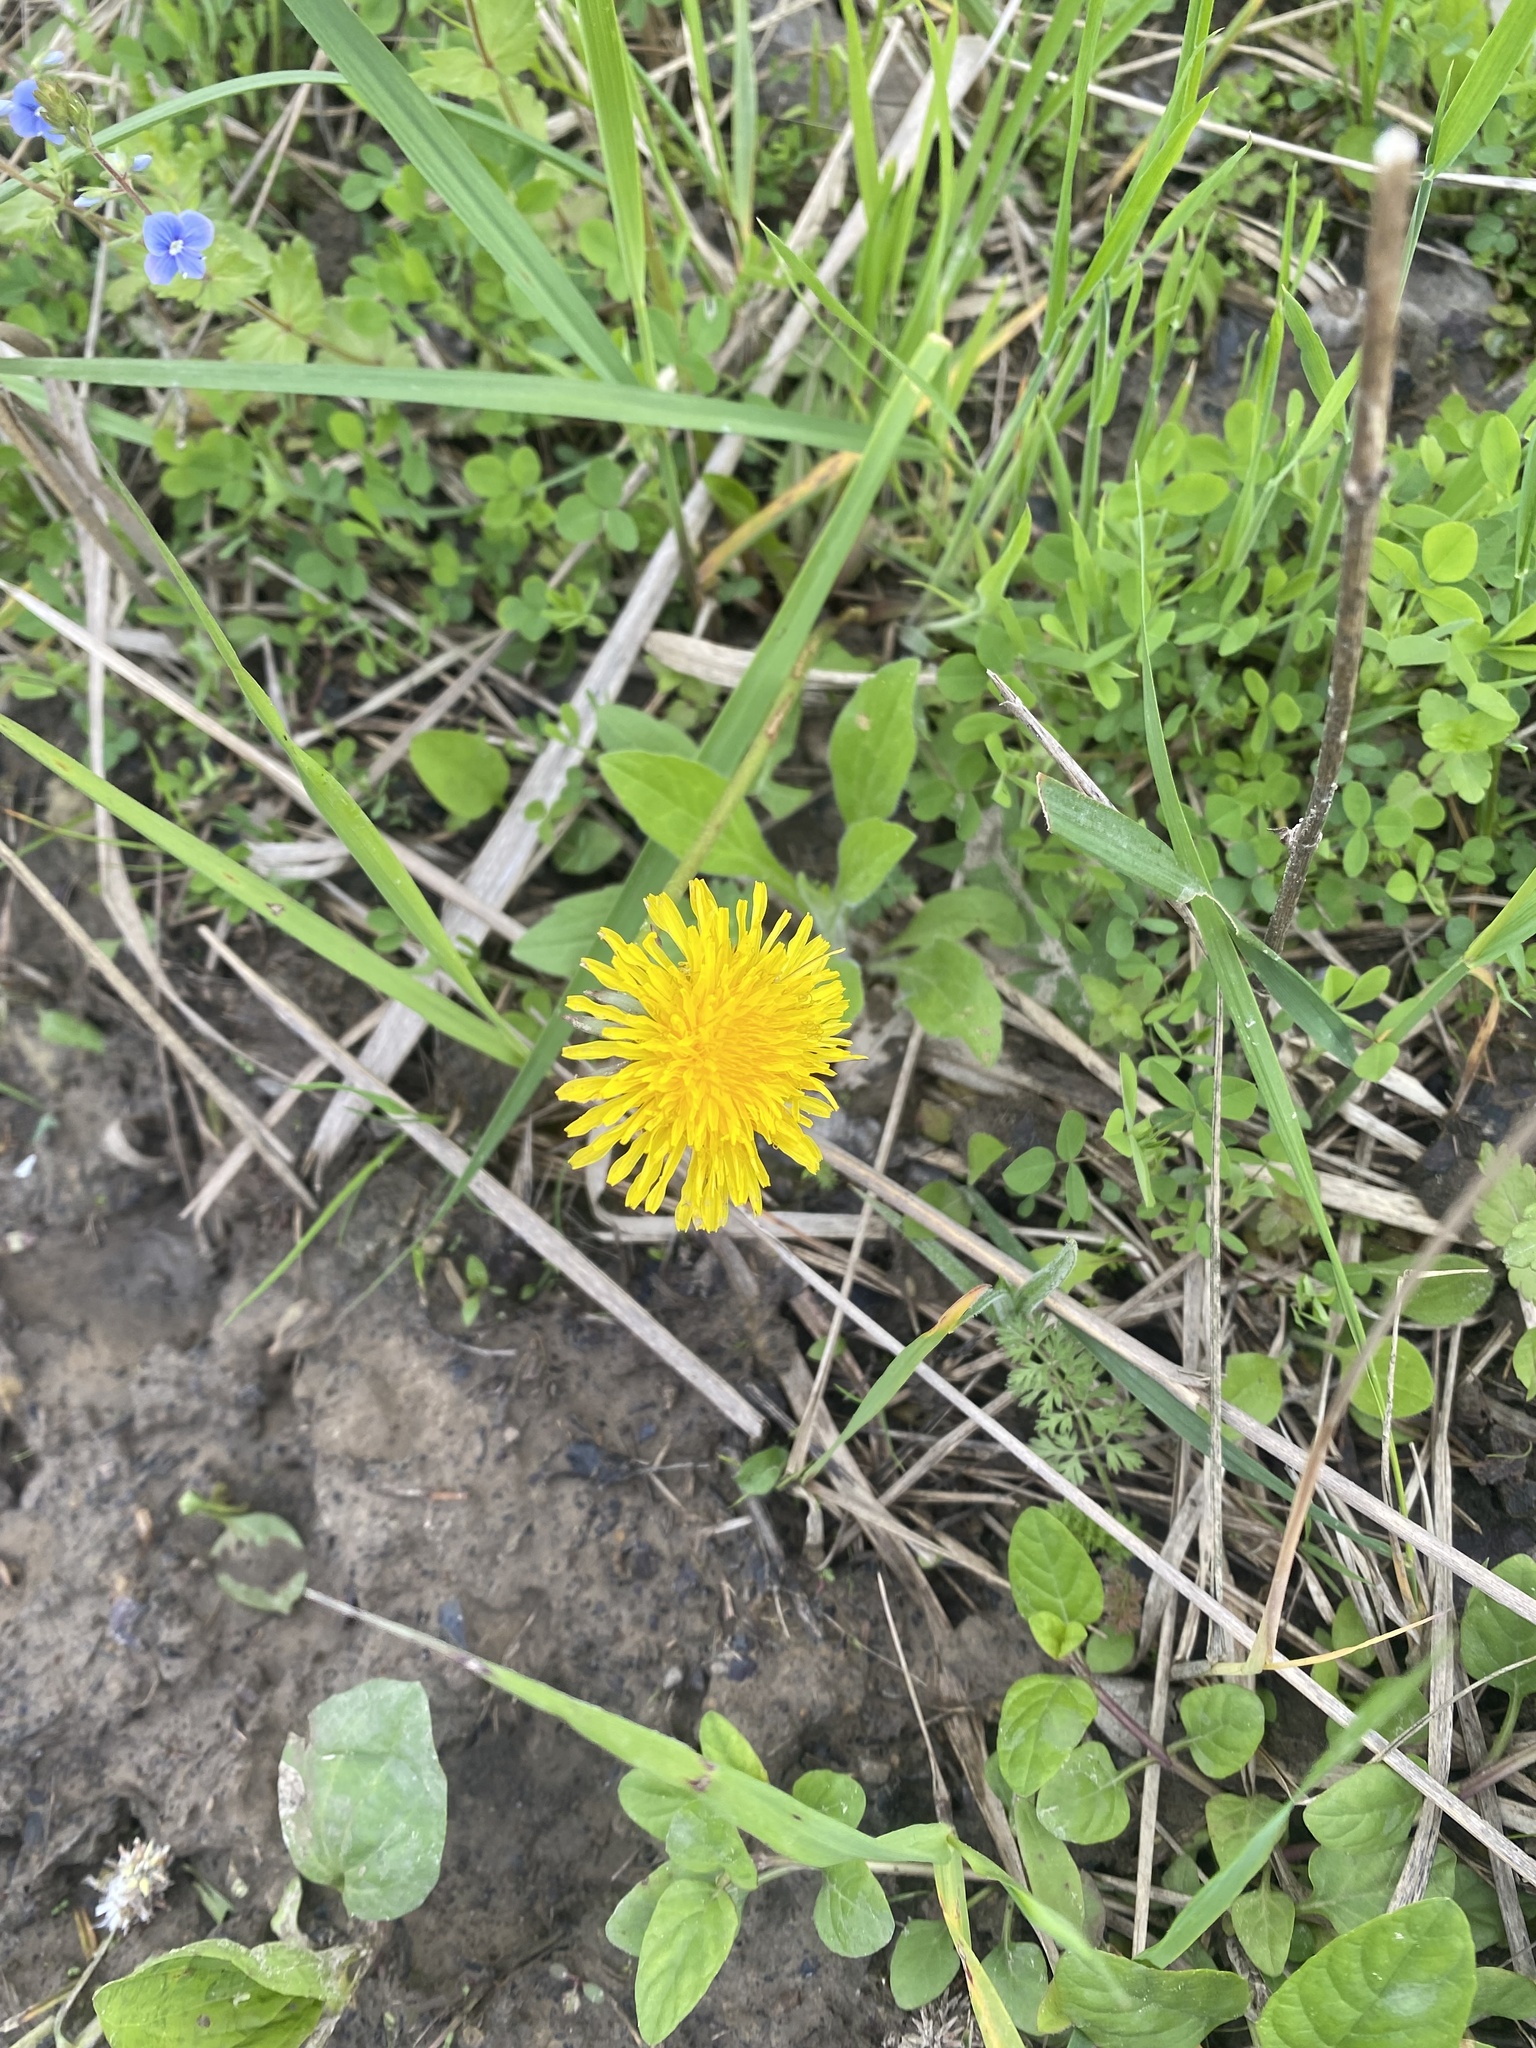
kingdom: Plantae
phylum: Tracheophyta
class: Magnoliopsida
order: Asterales
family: Asteraceae
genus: Taraxacum
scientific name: Taraxacum officinale
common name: Common dandelion
